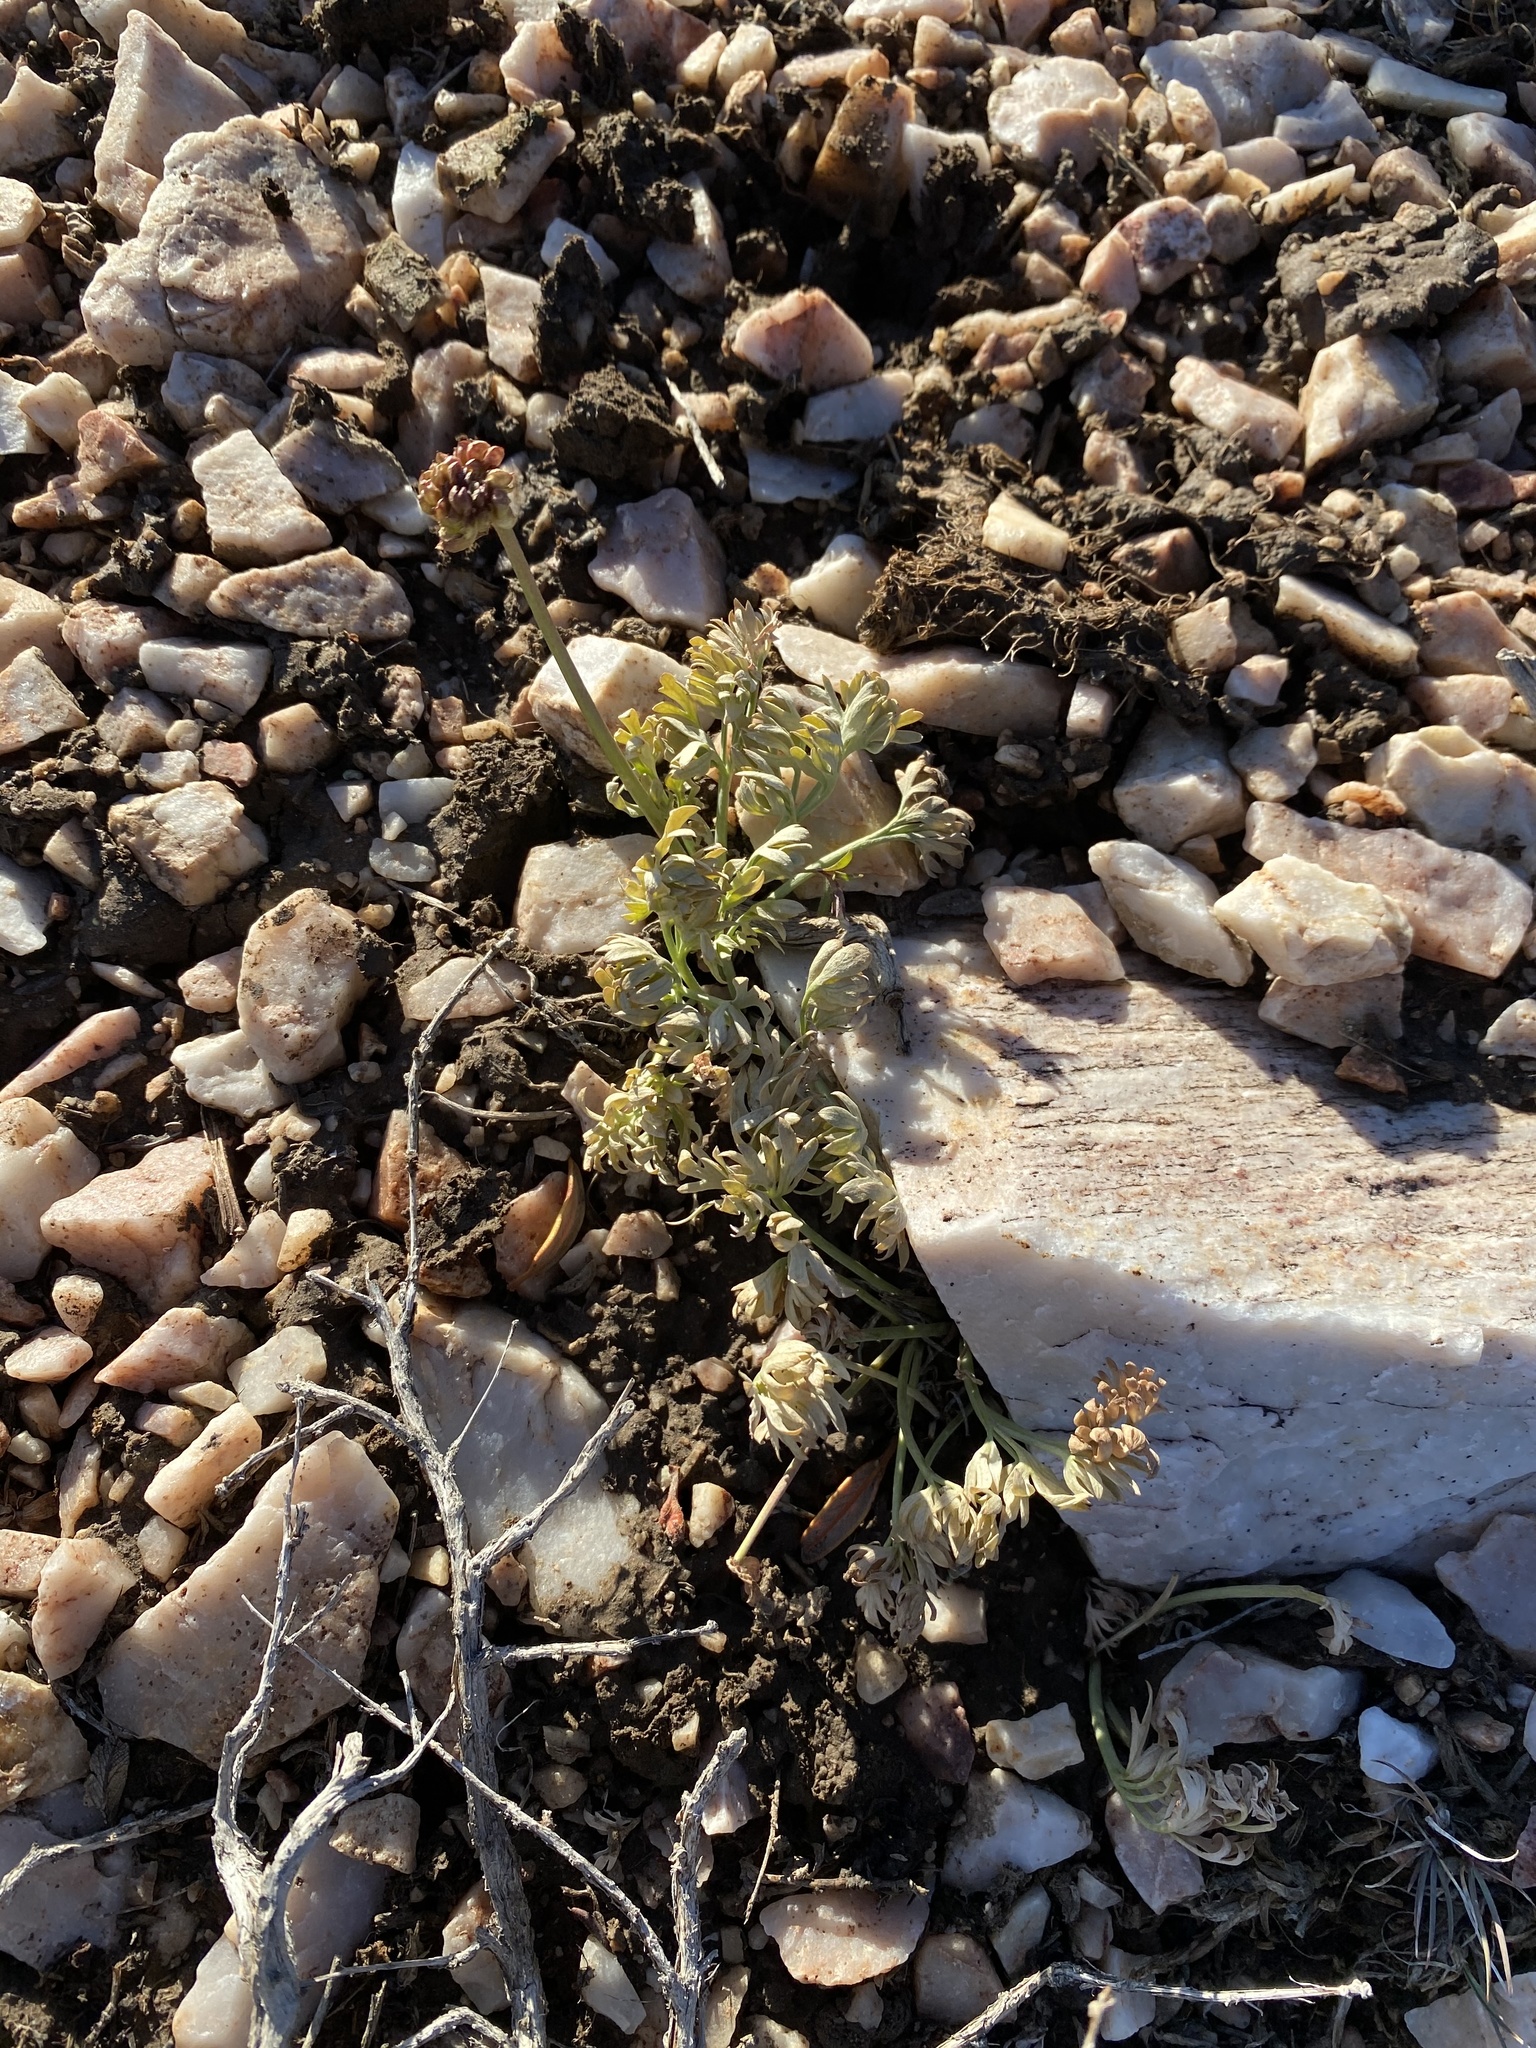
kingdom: Plantae
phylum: Tracheophyta
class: Magnoliopsida
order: Ranunculales
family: Ranunculaceae
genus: Beckwithia
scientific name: Beckwithia andersonii
